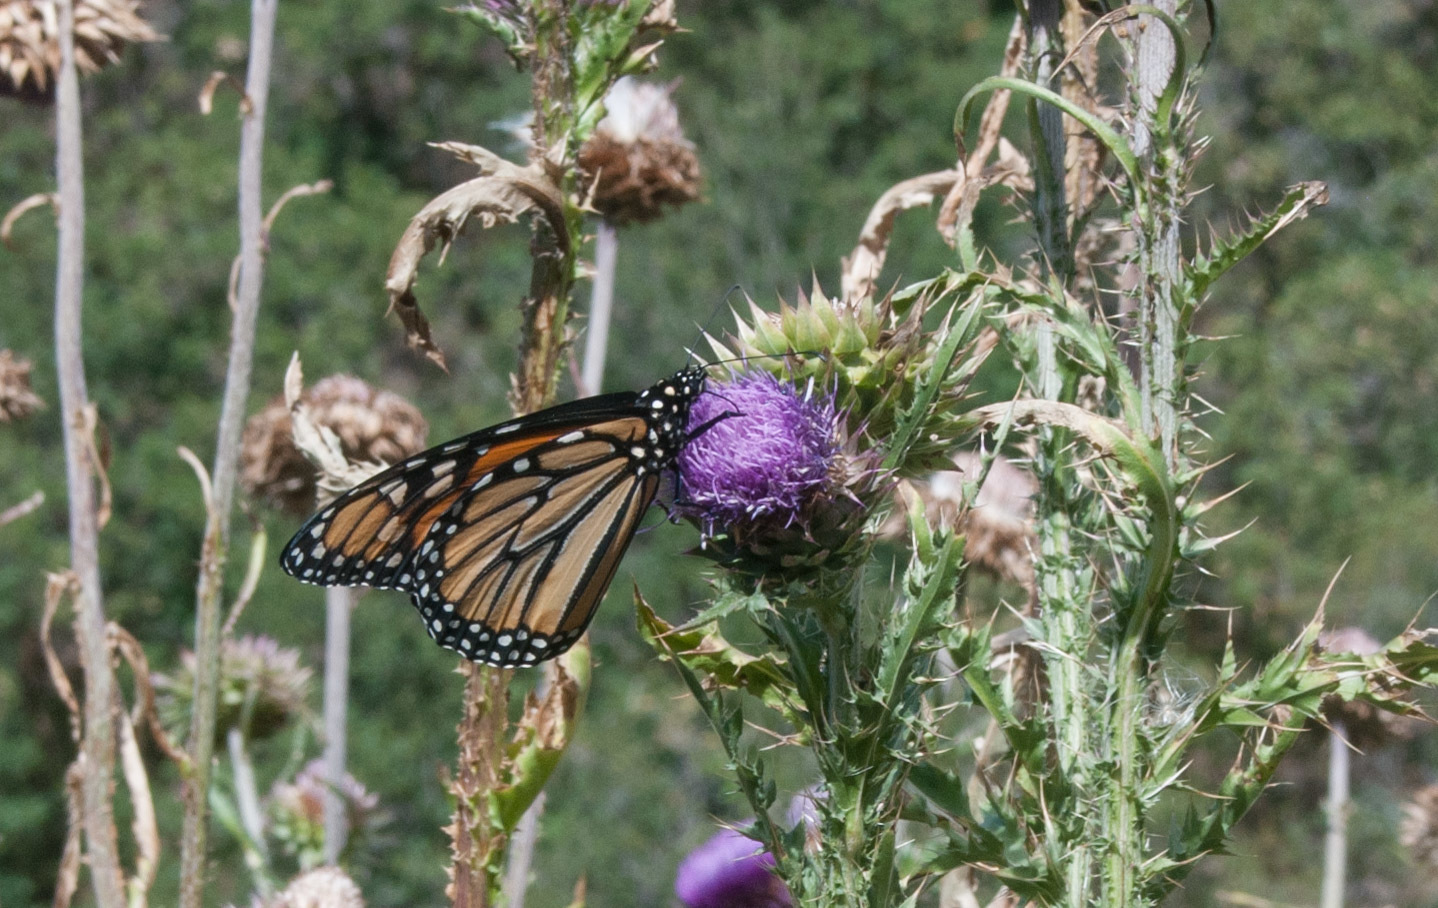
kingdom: Animalia
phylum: Arthropoda
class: Insecta
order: Lepidoptera
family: Nymphalidae
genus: Danaus
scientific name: Danaus plexippus
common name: Monarch
